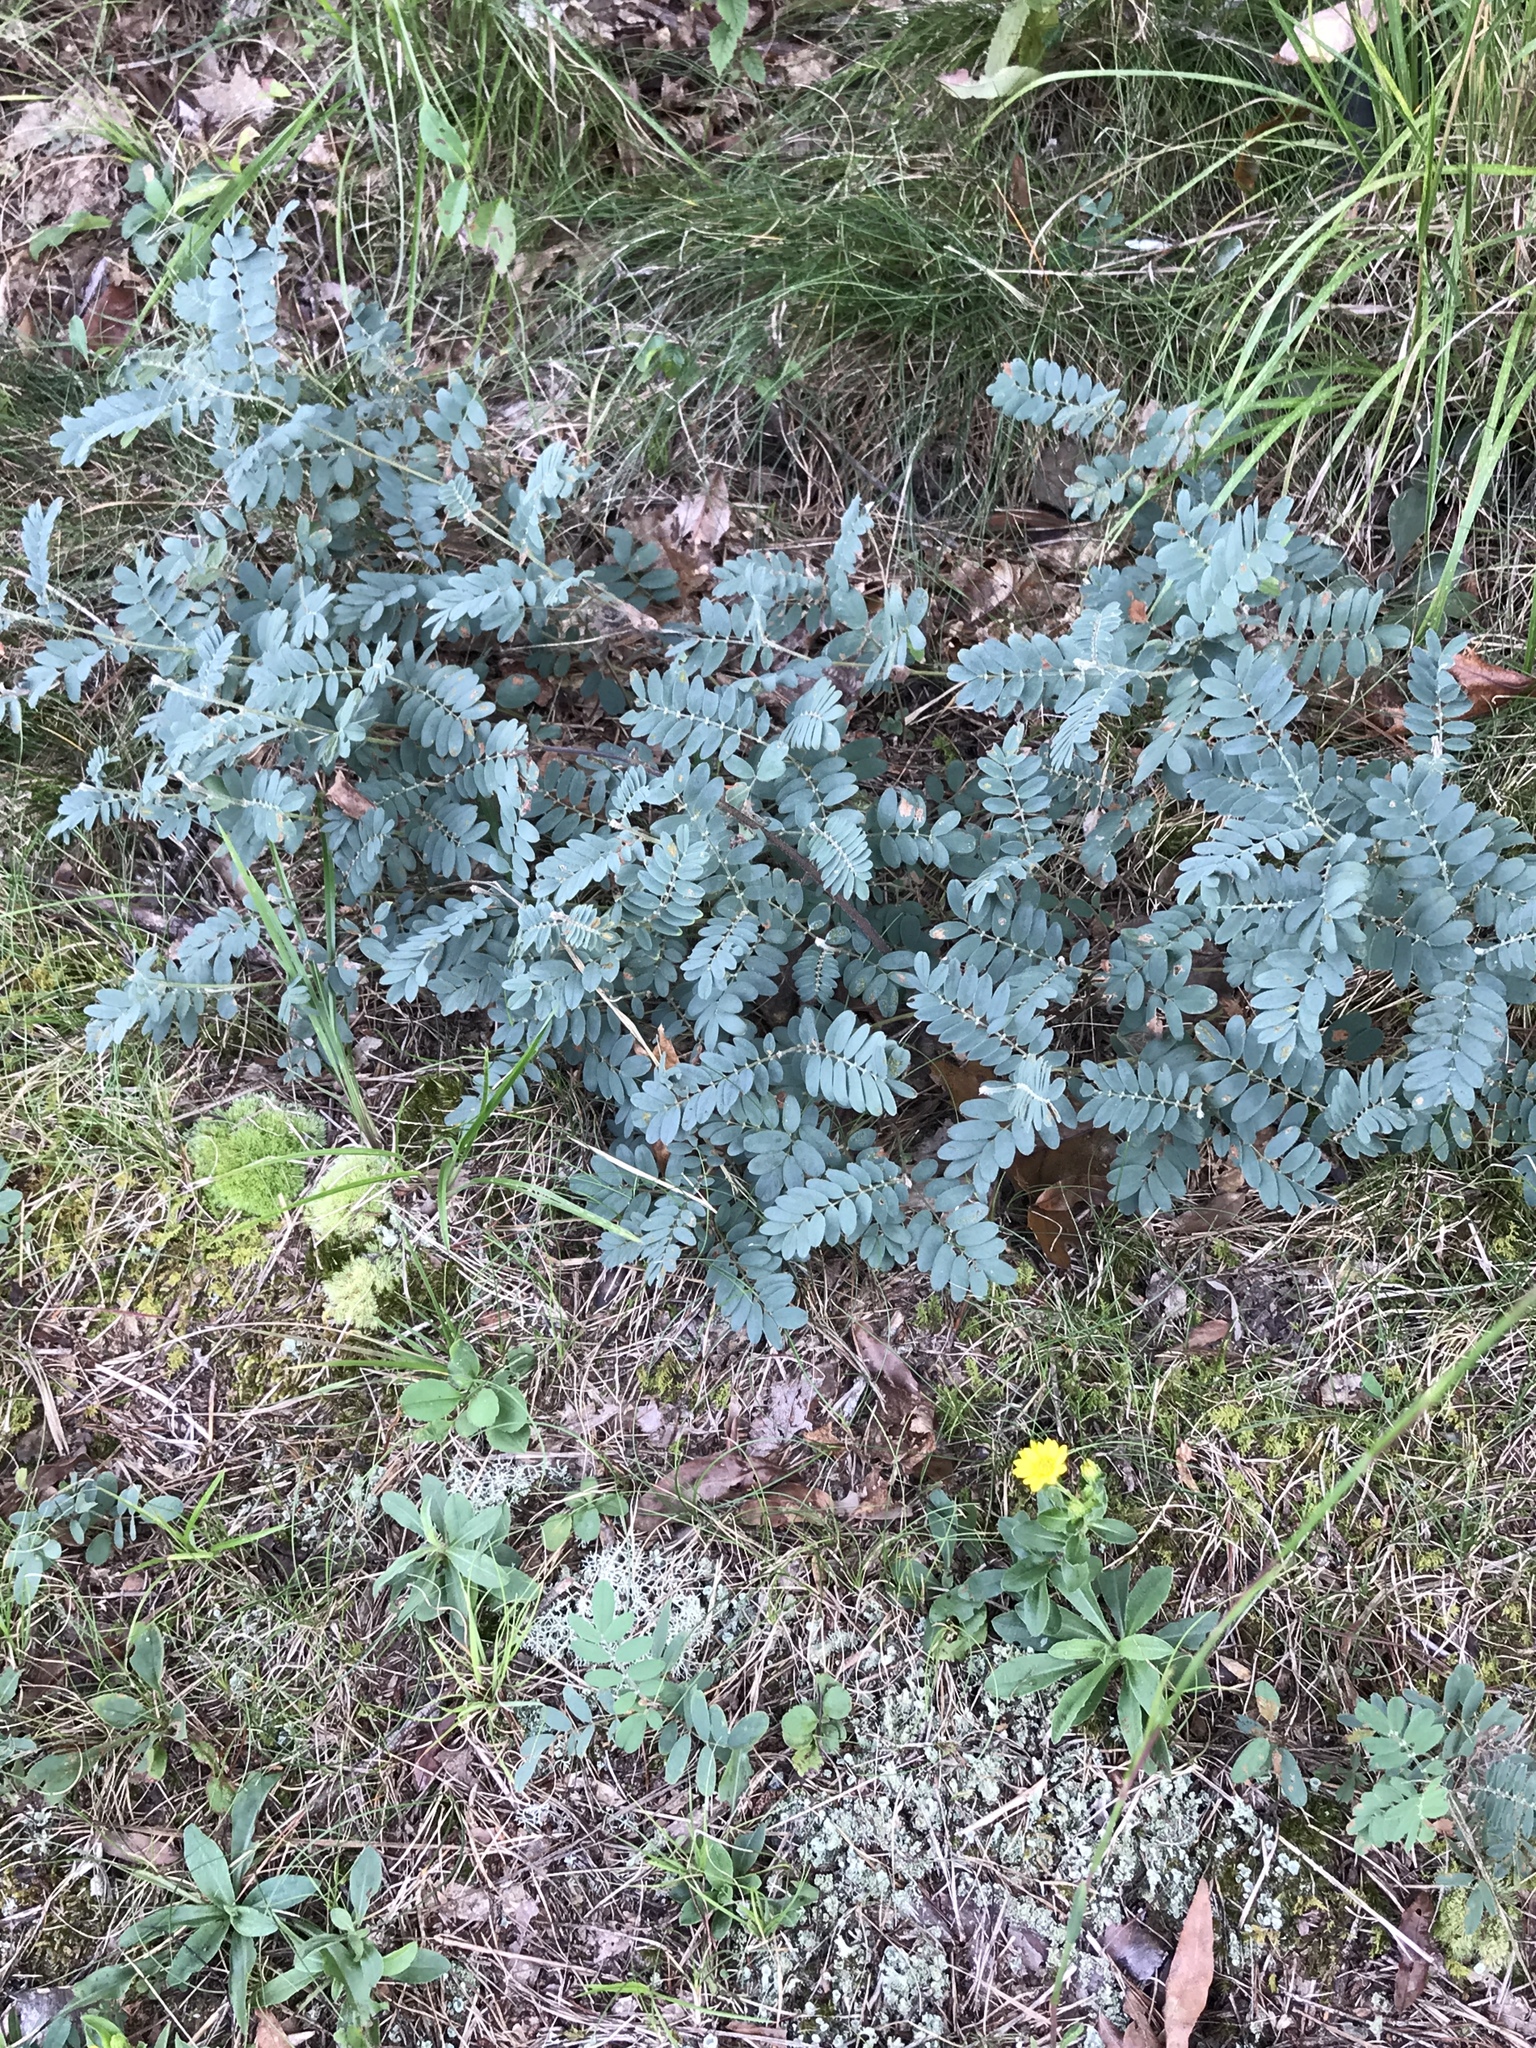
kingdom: Plantae
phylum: Tracheophyta
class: Magnoliopsida
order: Fabales
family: Fabaceae
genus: Tephrosia
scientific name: Tephrosia virginiana
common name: Rabbit-pea
